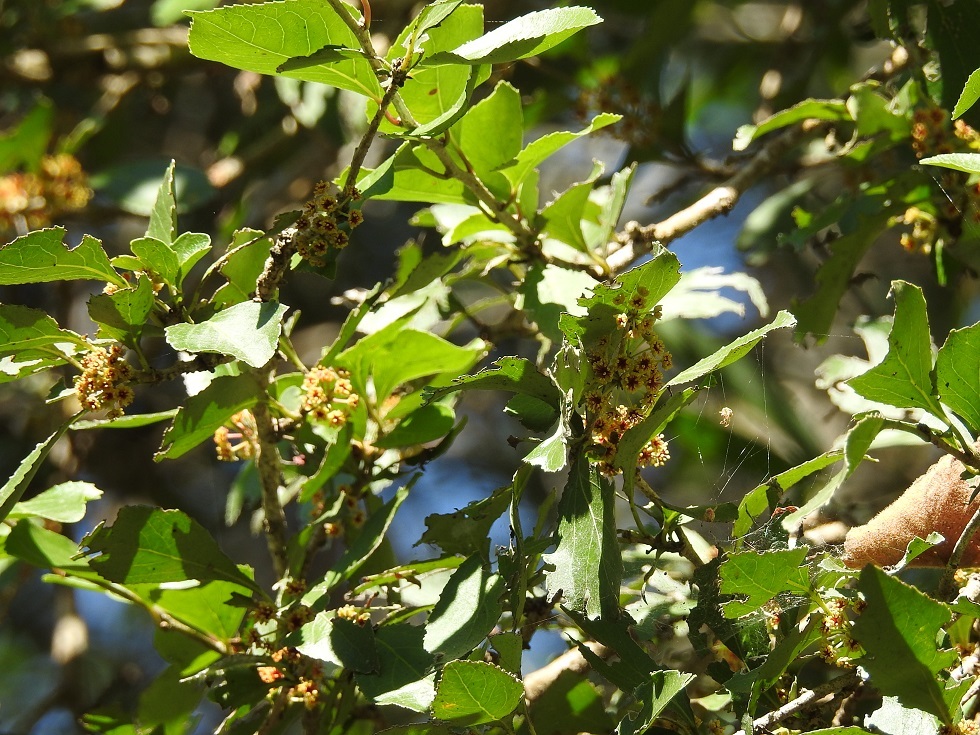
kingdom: Plantae
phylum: Tracheophyta
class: Magnoliopsida
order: Malpighiales
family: Salicaceae
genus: Xylosma
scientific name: Xylosma intermedia
